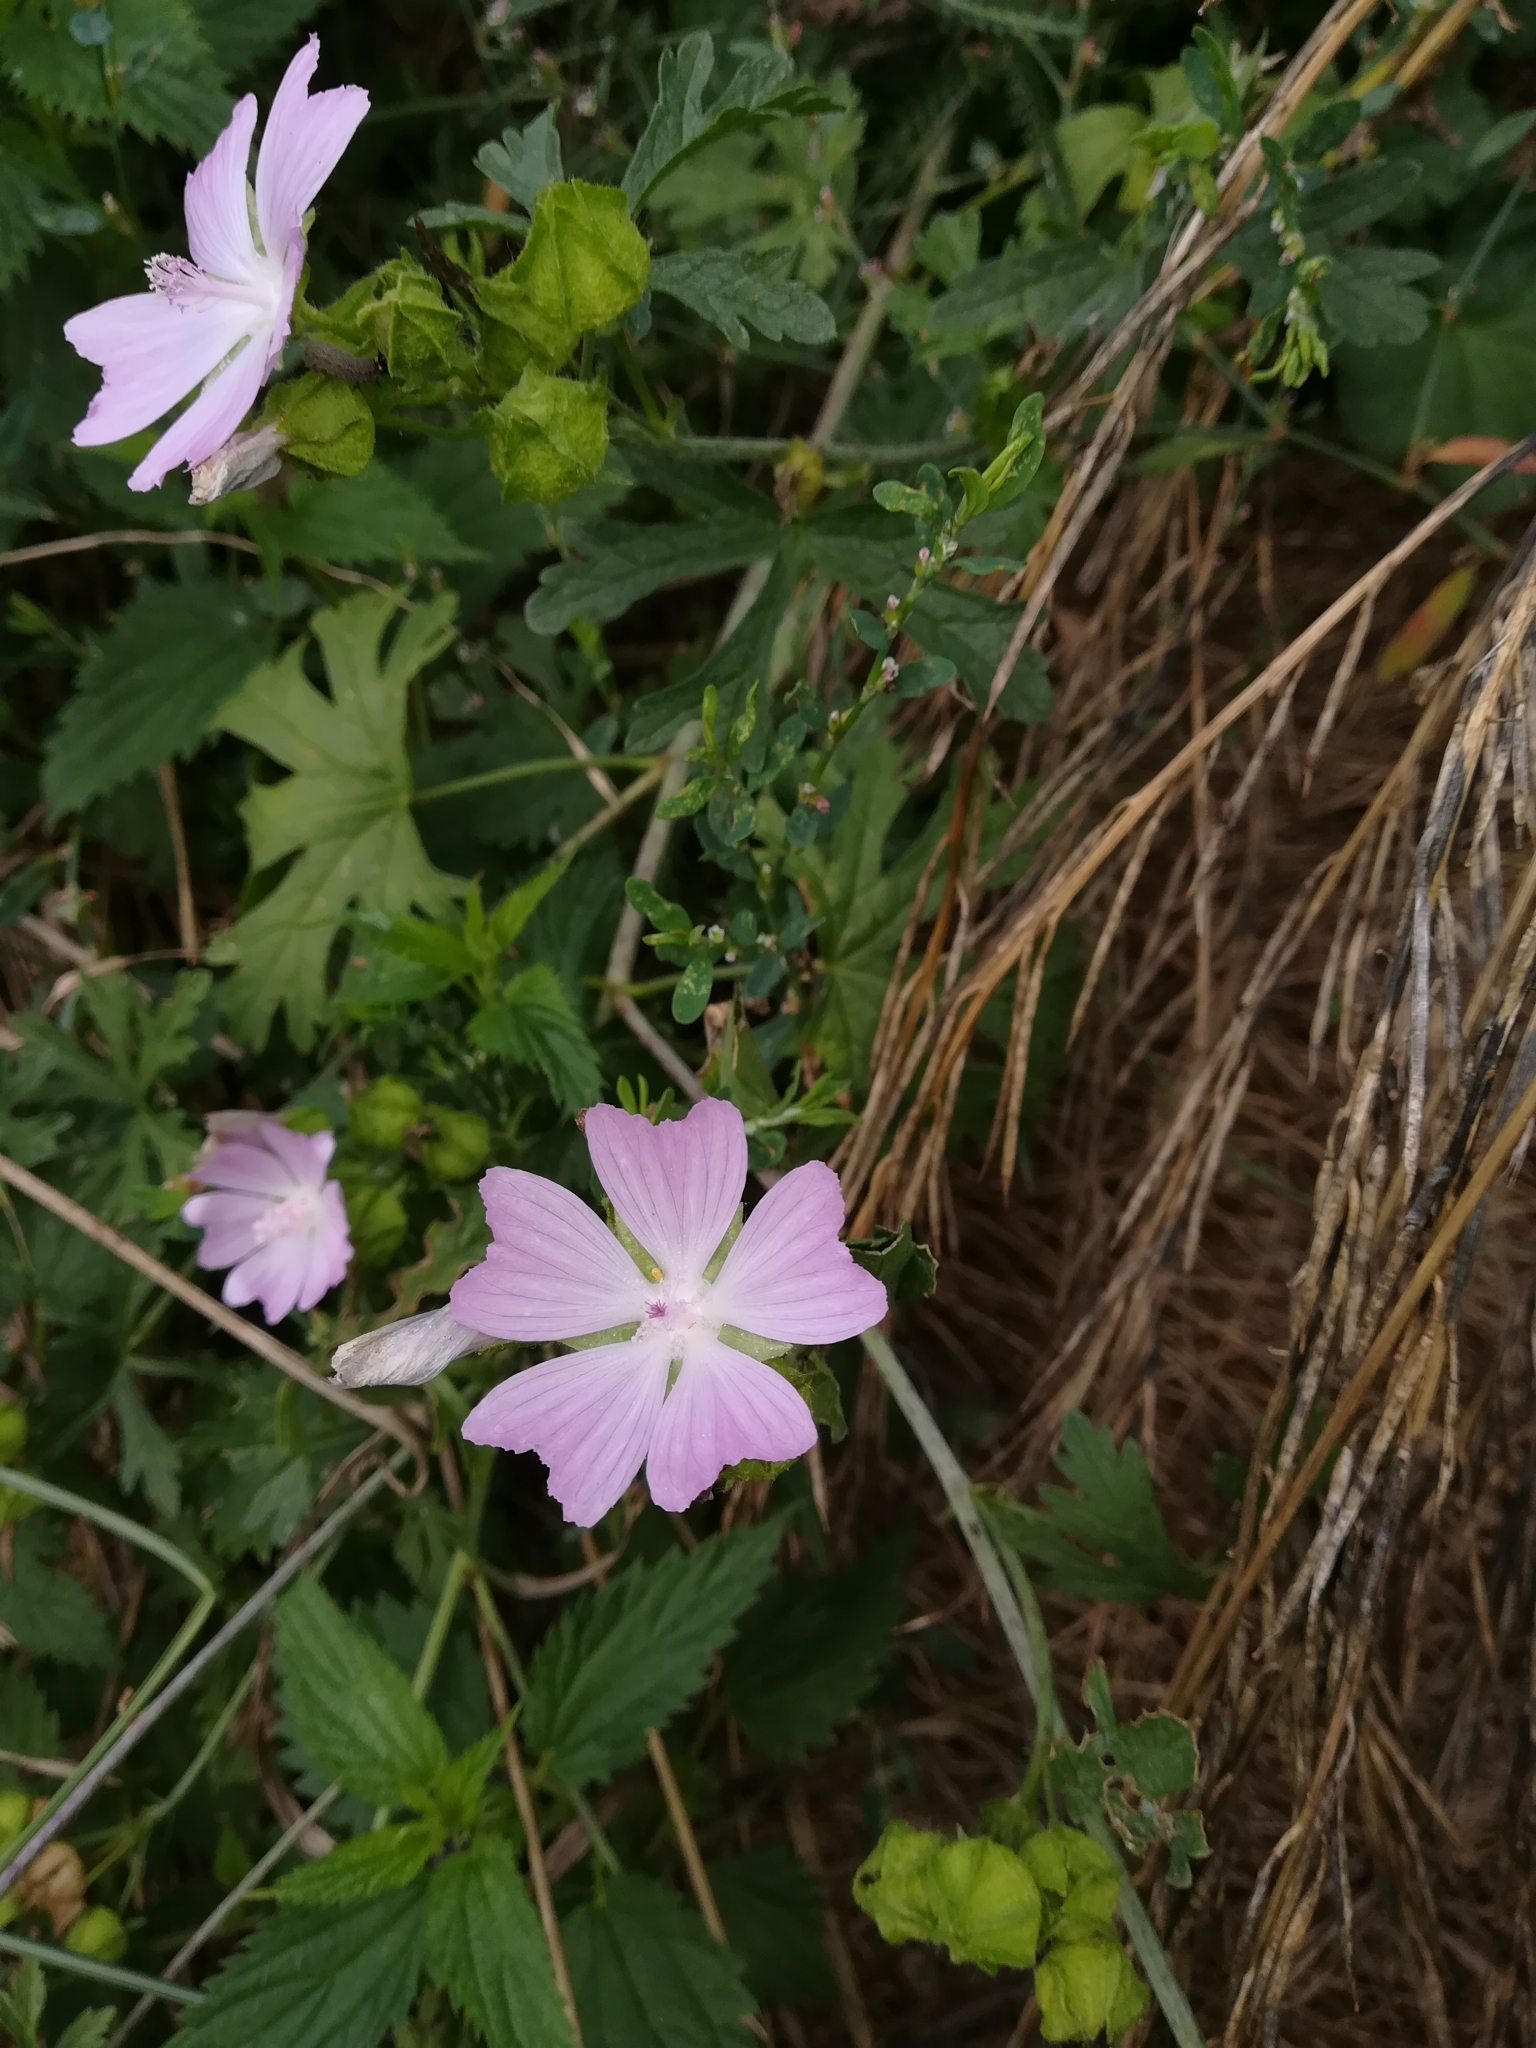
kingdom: Plantae
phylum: Tracheophyta
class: Magnoliopsida
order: Malvales
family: Malvaceae
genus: Malva
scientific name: Malva moschata
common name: Musk mallow
